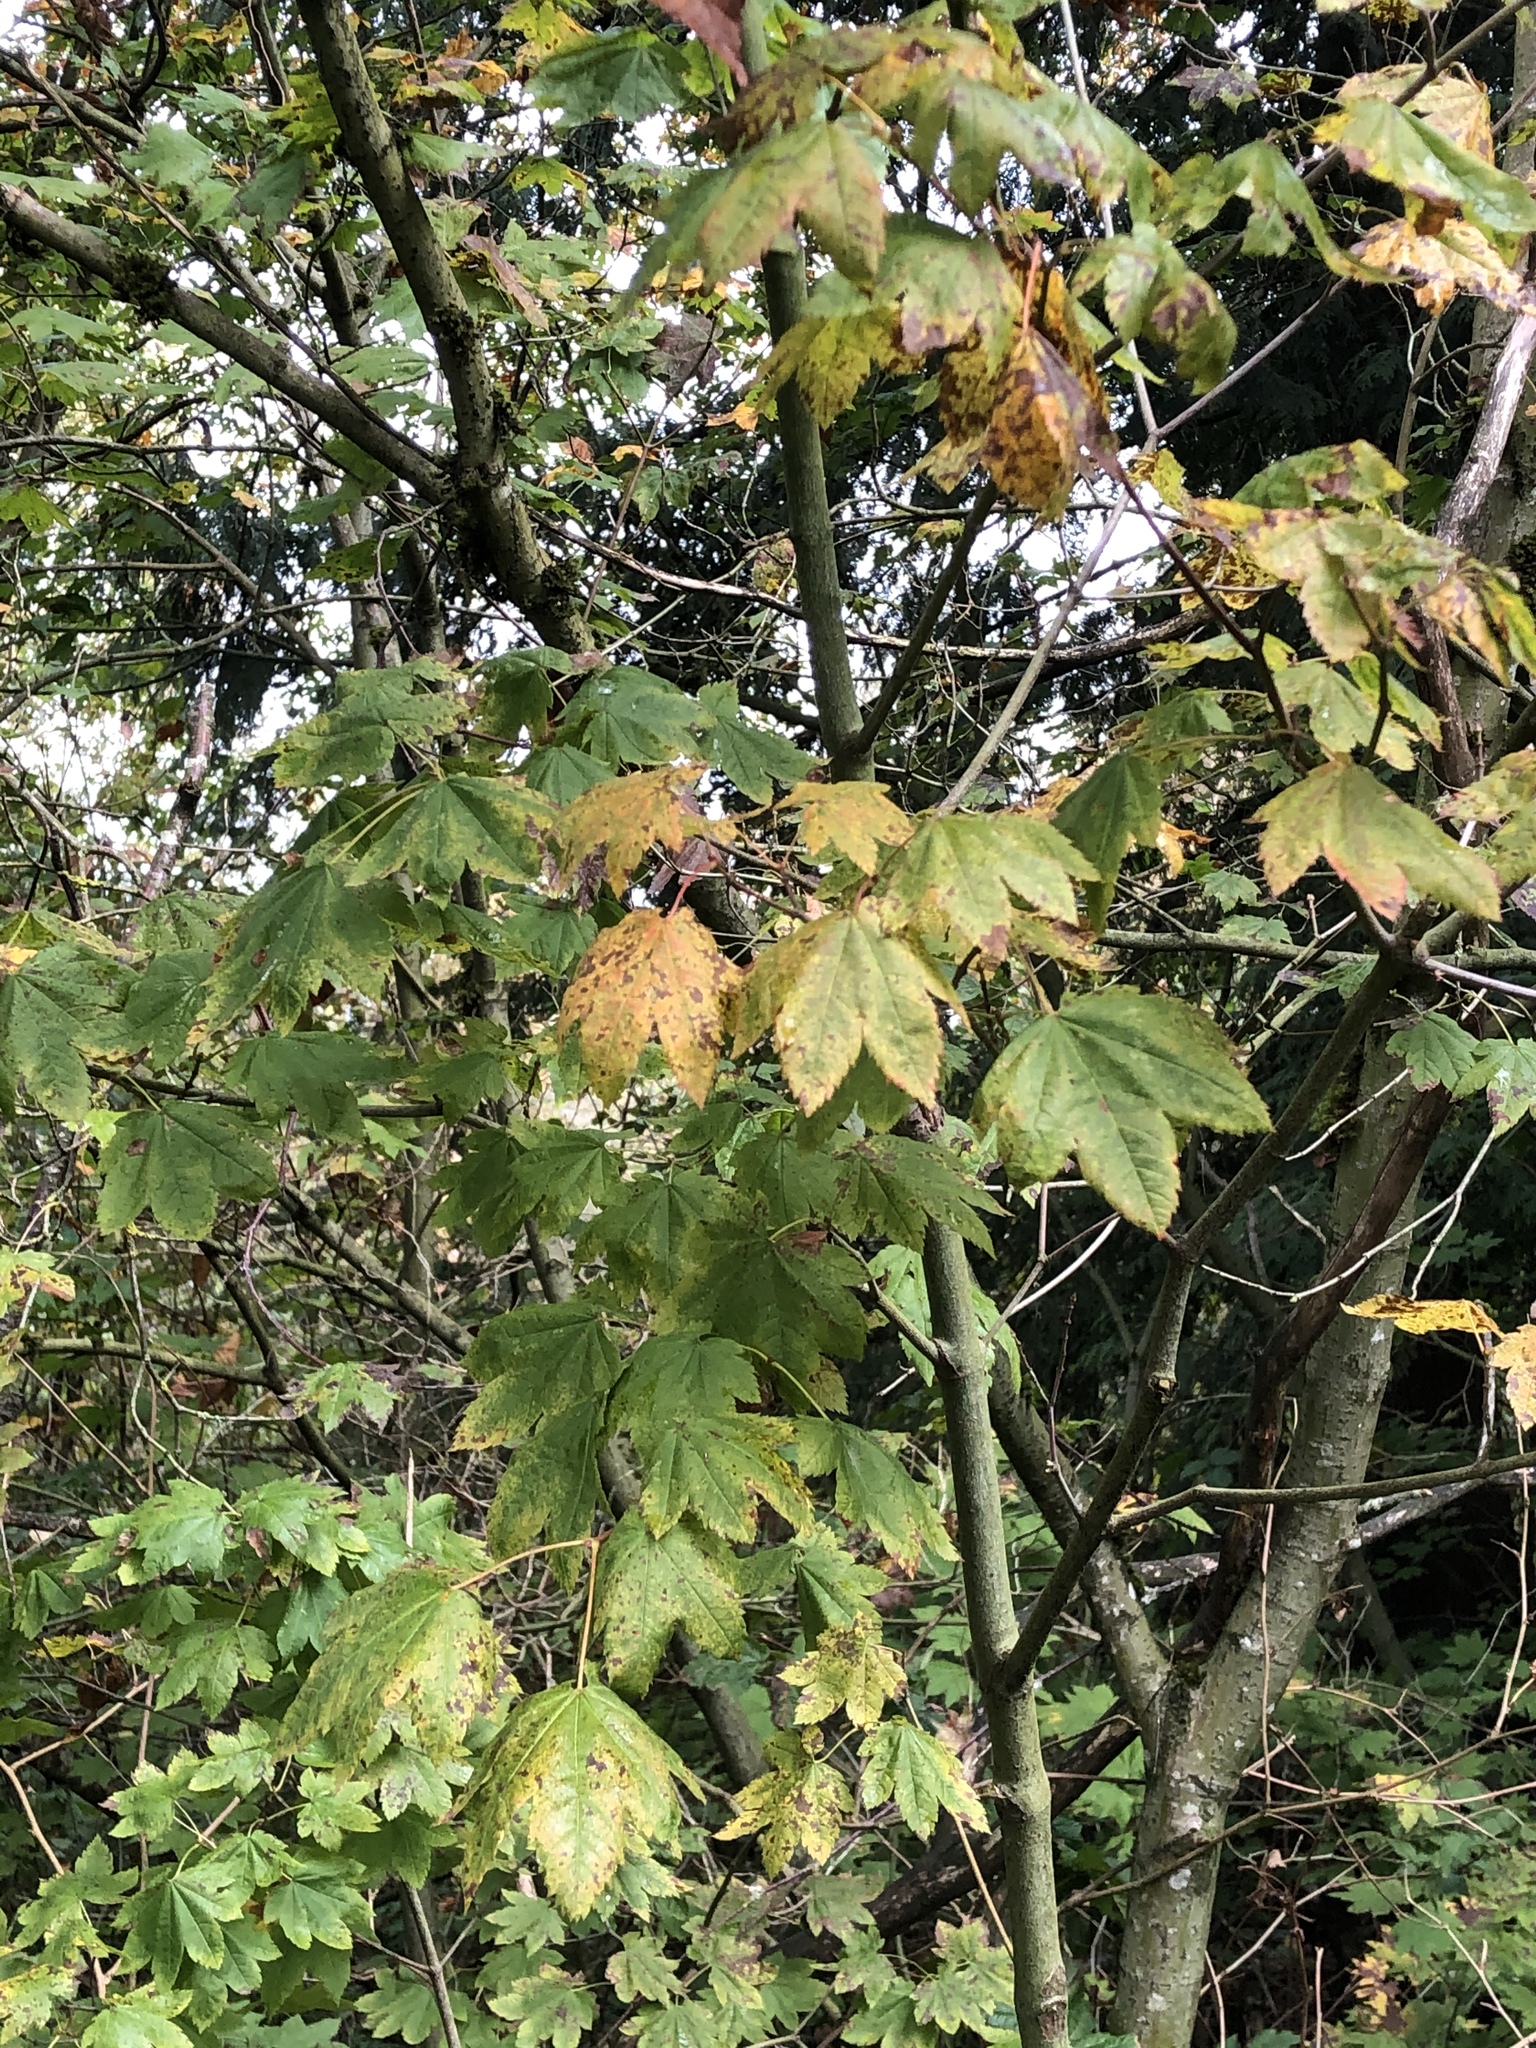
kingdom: Plantae
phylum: Tracheophyta
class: Magnoliopsida
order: Sapindales
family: Sapindaceae
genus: Acer
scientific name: Acer circinatum
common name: Vine maple
